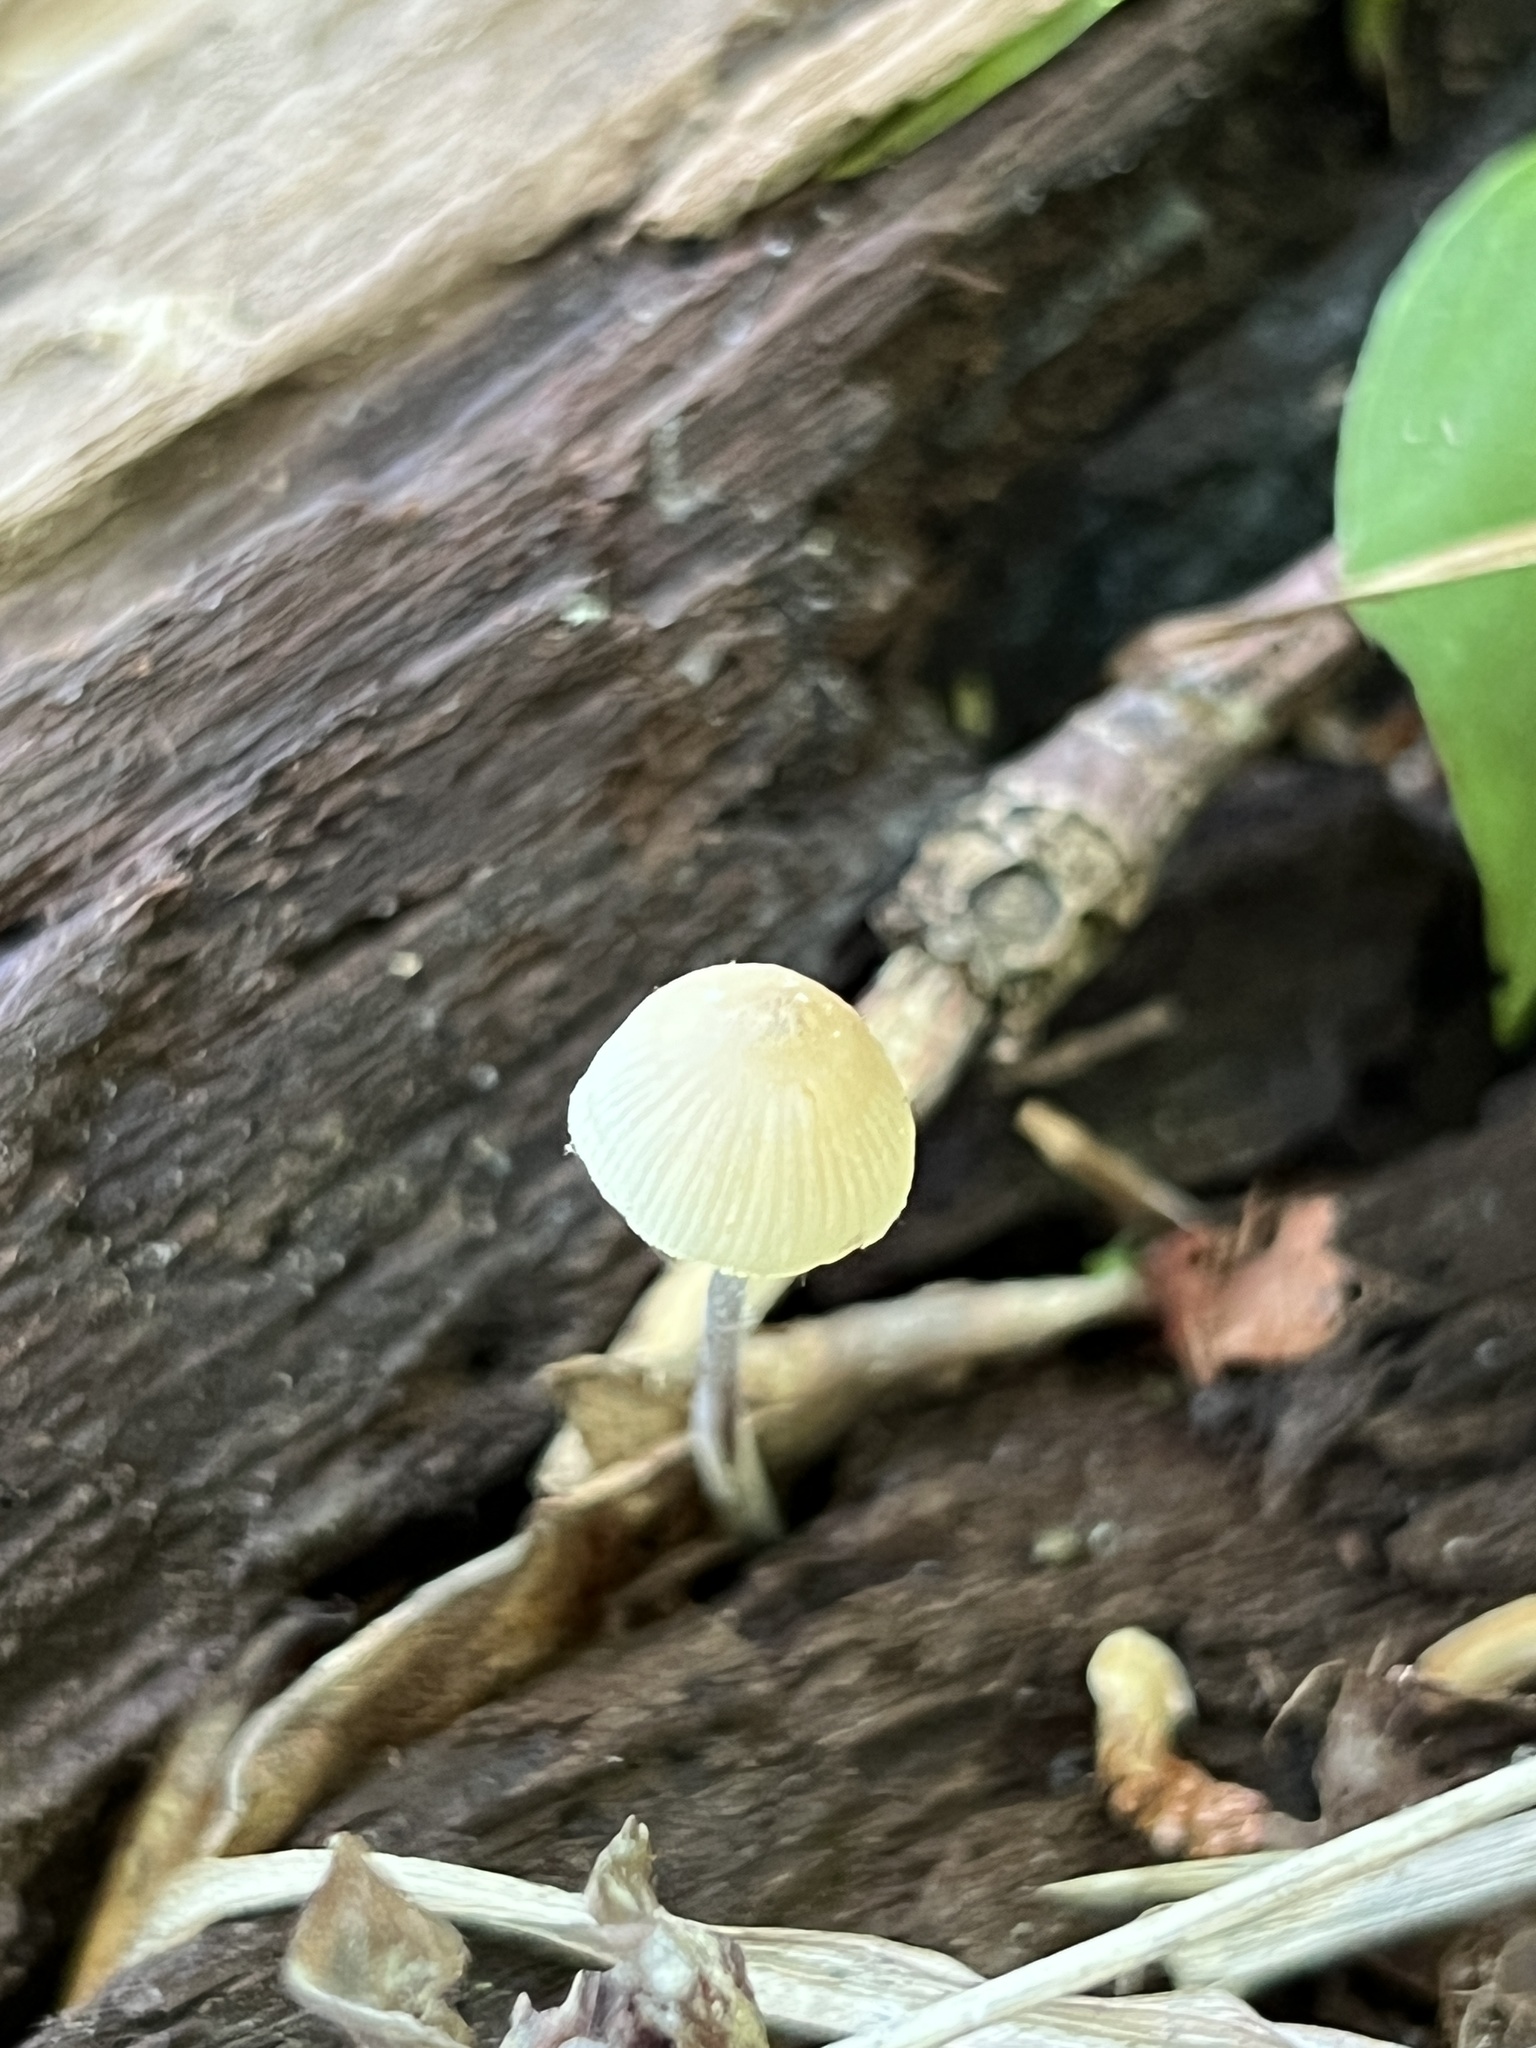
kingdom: Fungi
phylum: Basidiomycota
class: Agaricomycetes
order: Agaricales
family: Mycenaceae
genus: Mycena
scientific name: Mycena subcaerulea
